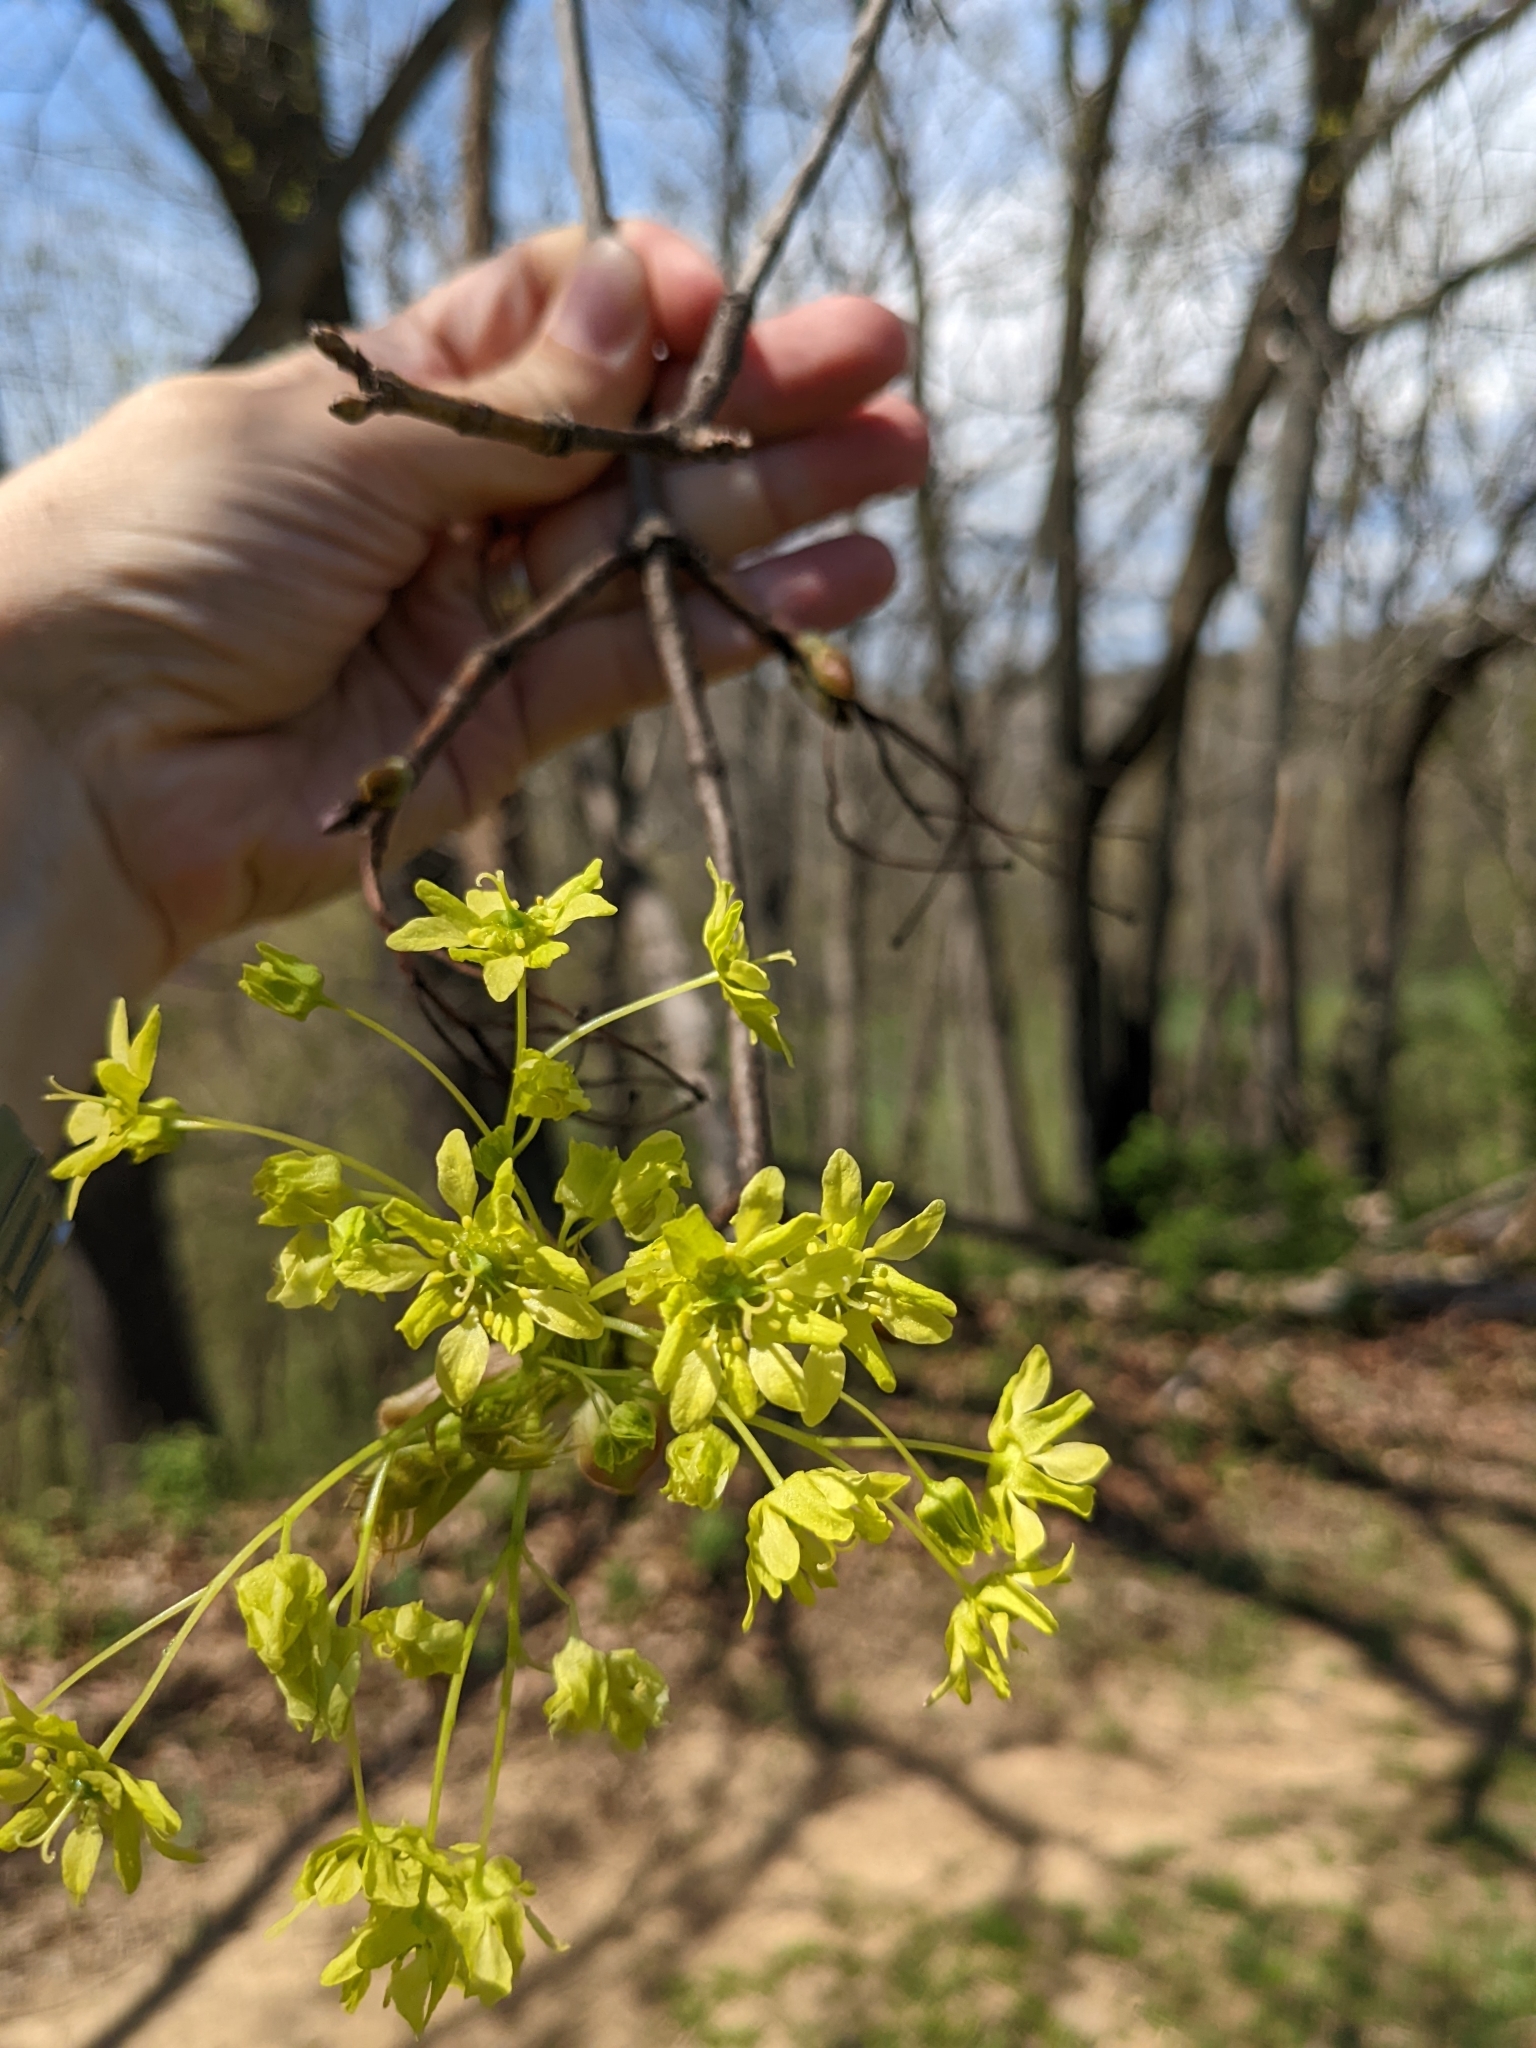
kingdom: Plantae
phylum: Tracheophyta
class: Magnoliopsida
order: Sapindales
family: Sapindaceae
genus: Acer
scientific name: Acer platanoides
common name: Norway maple
